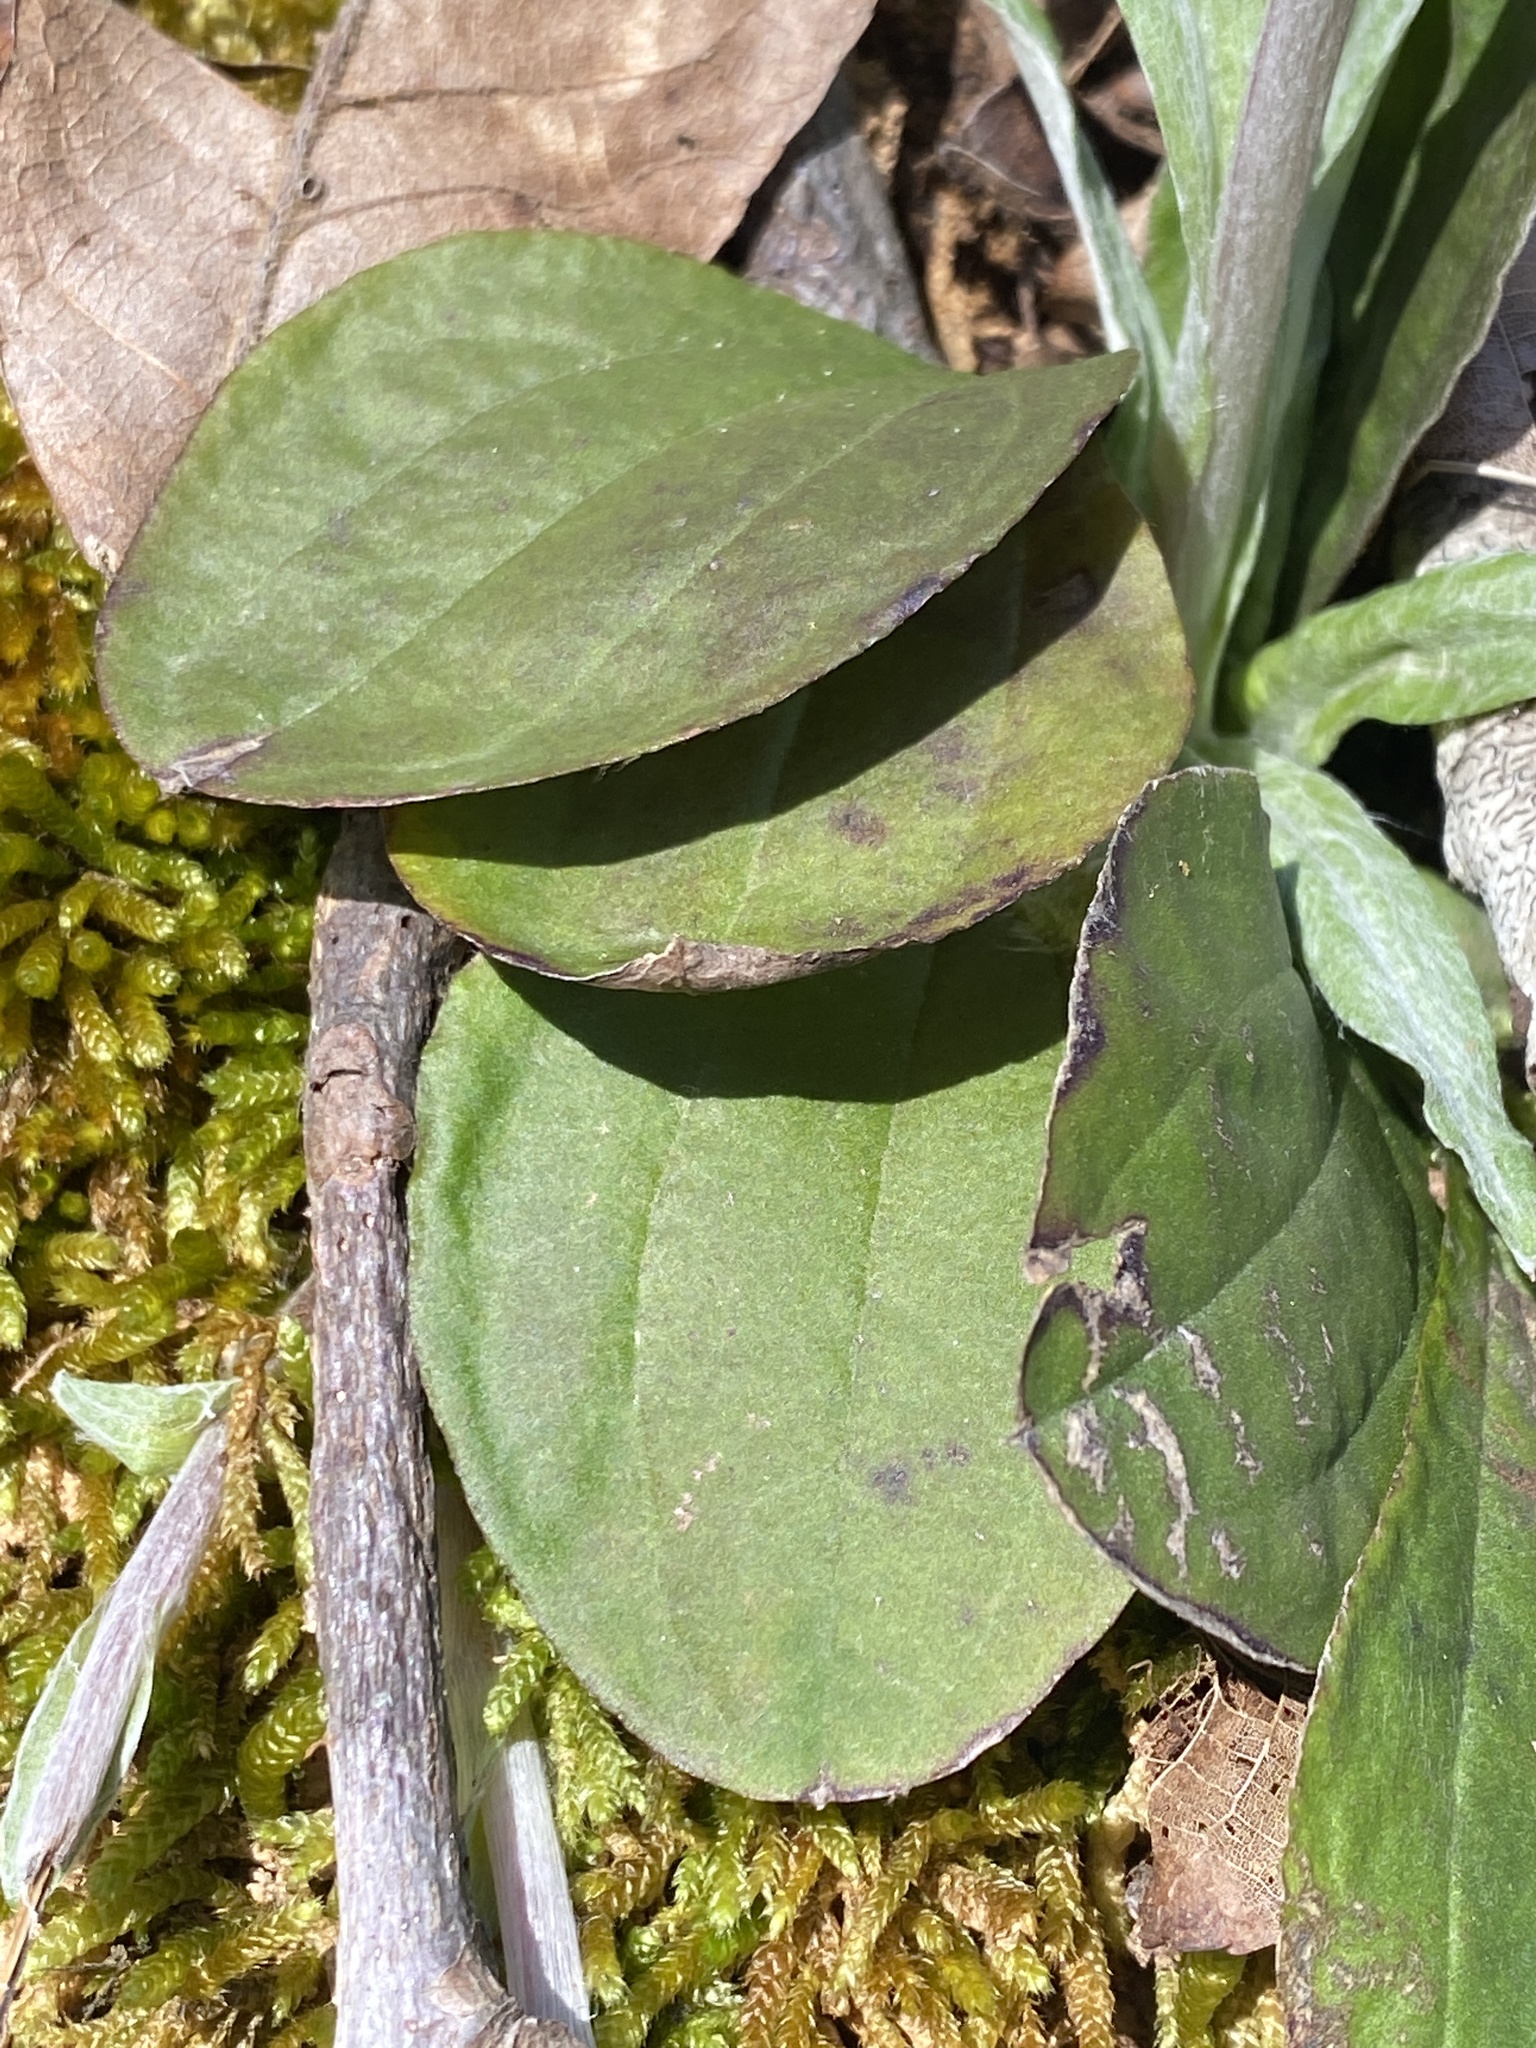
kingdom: Plantae
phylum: Tracheophyta
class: Magnoliopsida
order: Asterales
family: Asteraceae
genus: Antennaria
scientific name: Antennaria parlinii
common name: Parlin's pussytoes
